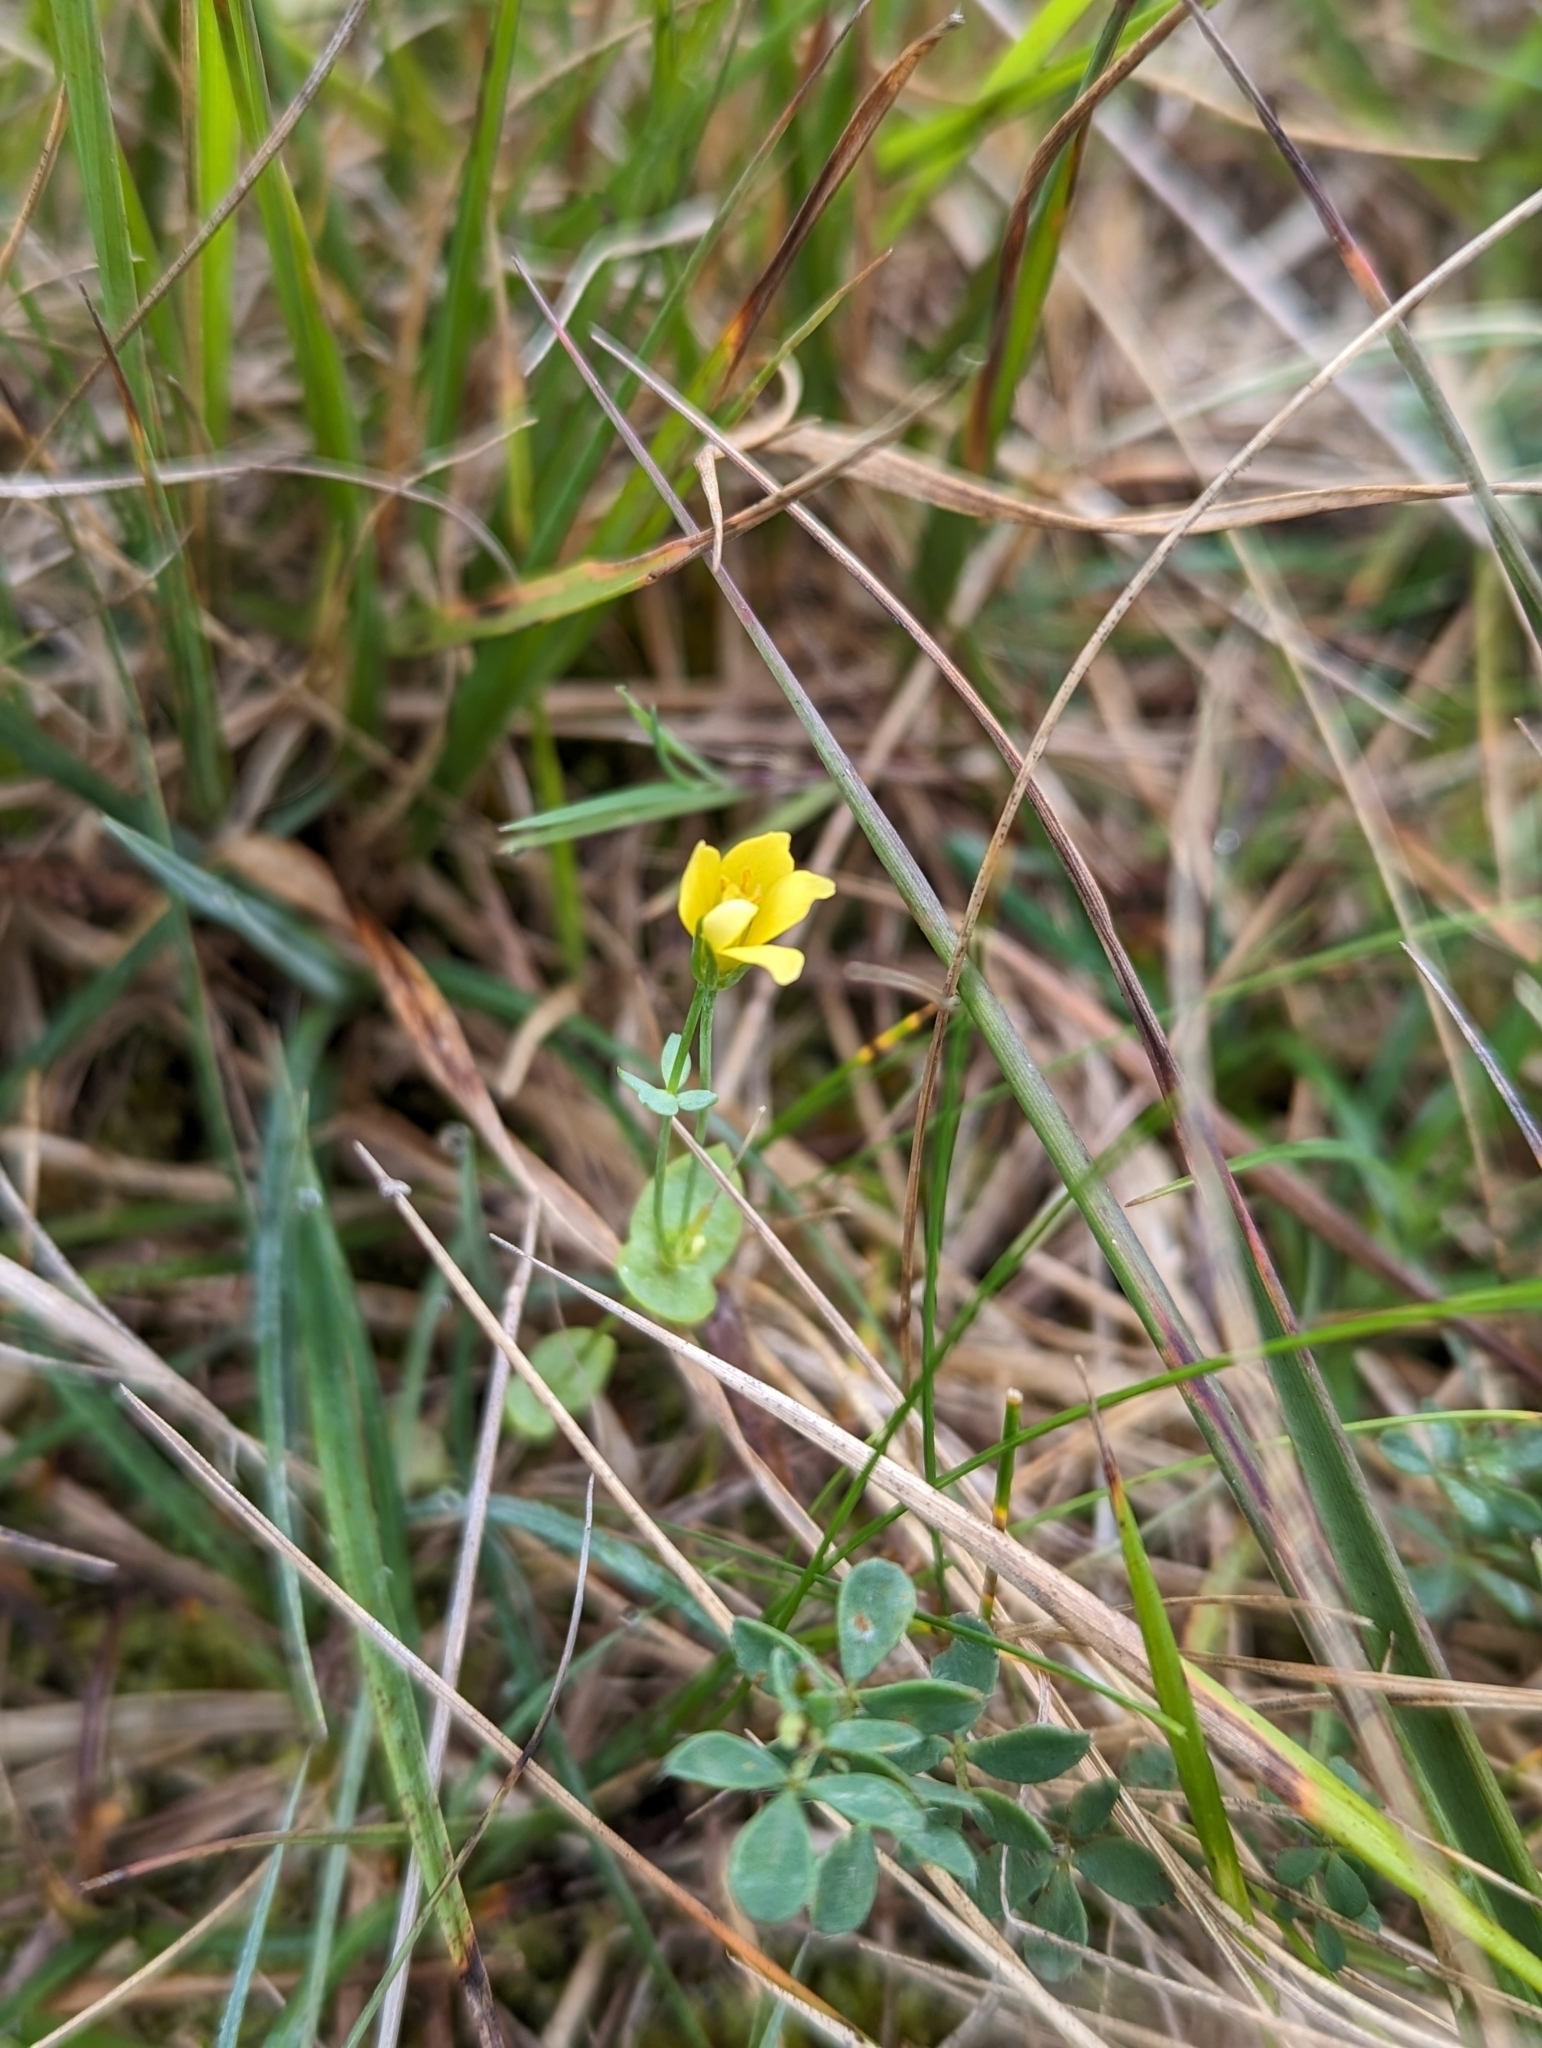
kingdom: Plantae
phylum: Tracheophyta
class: Magnoliopsida
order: Gentianales
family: Gentianaceae
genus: Blackstonia
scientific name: Blackstonia perfoliata
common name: Yellow-wort
